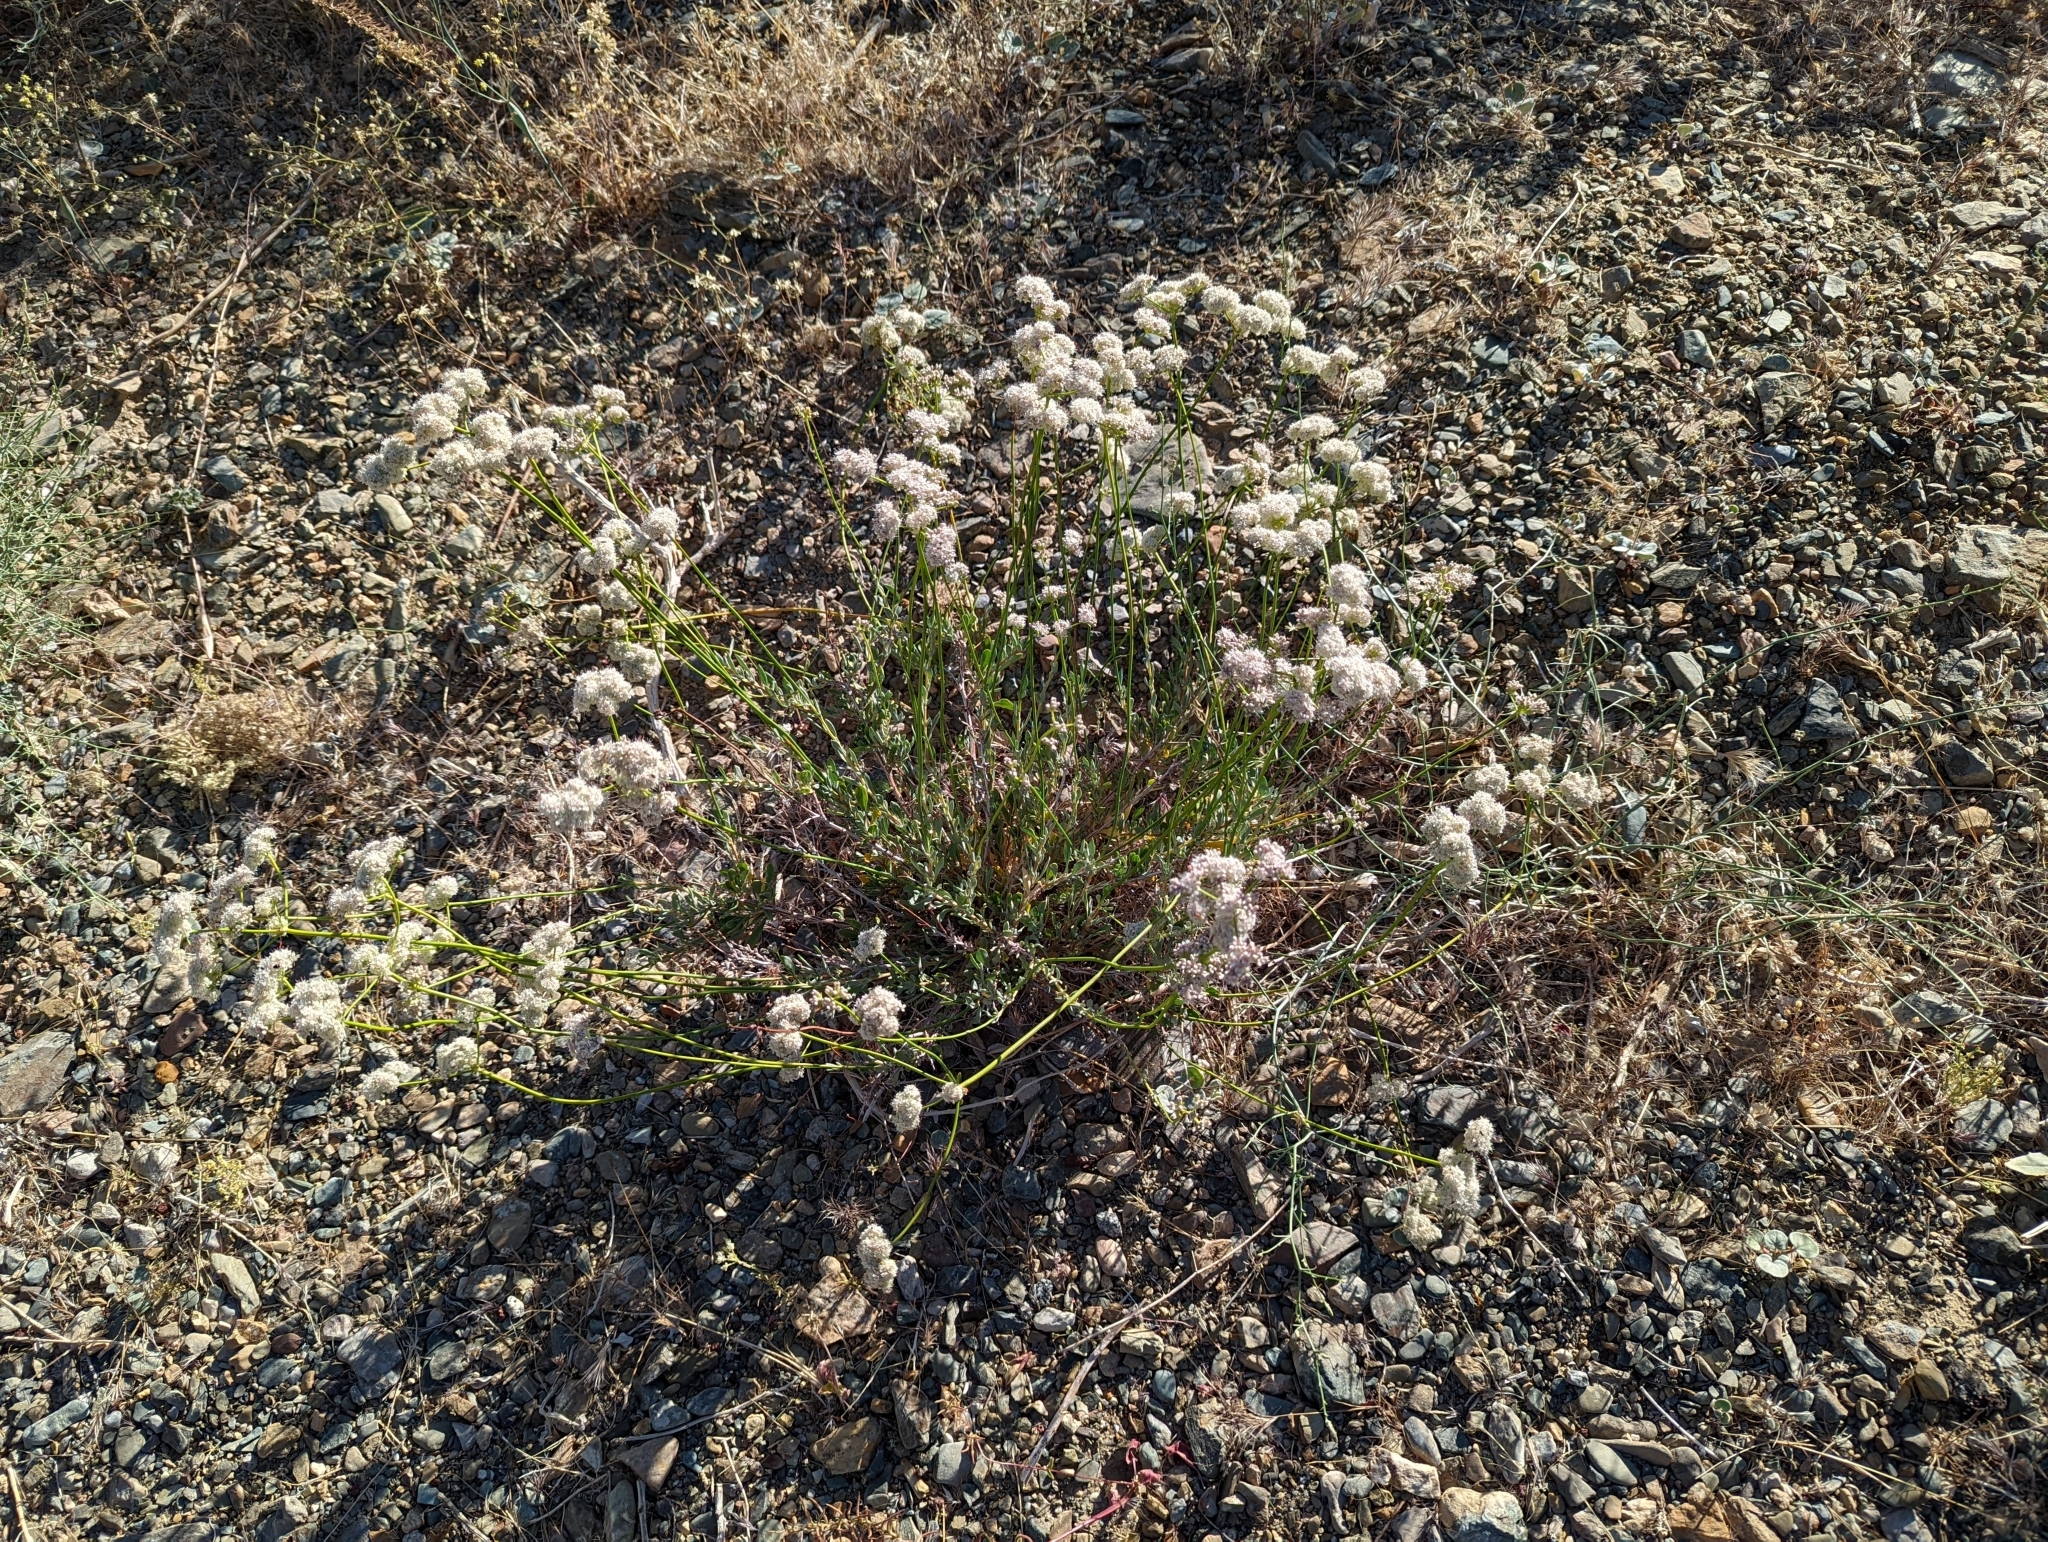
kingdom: Plantae
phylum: Tracheophyta
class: Magnoliopsida
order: Caryophyllales
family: Polygonaceae
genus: Eriogonum
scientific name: Eriogonum fasciculatum
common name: California wild buckwheat
